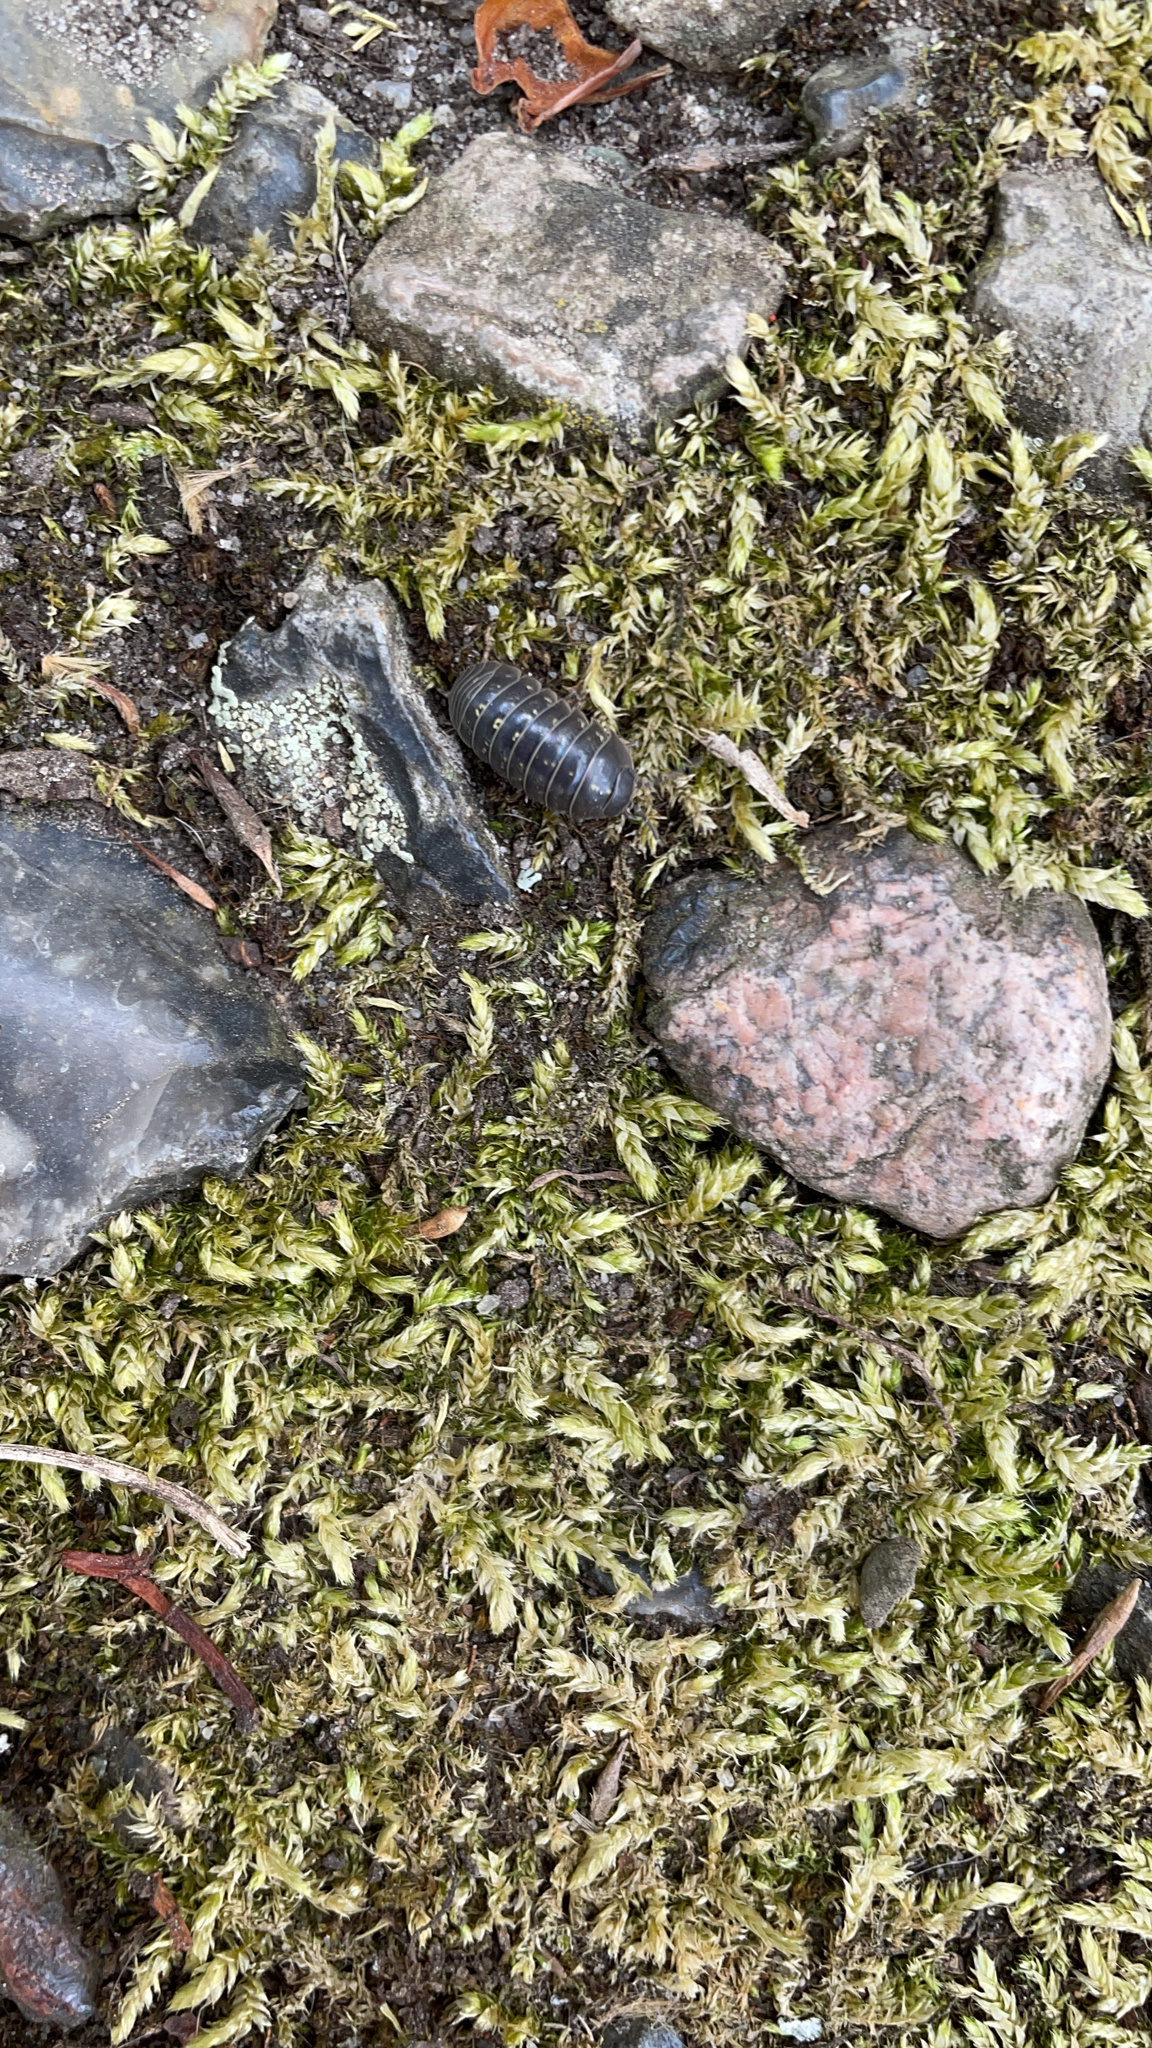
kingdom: Animalia
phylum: Arthropoda
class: Malacostraca
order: Isopoda
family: Armadillidiidae
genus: Armadillidium
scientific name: Armadillidium vulgare
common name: Common pill woodlouse
